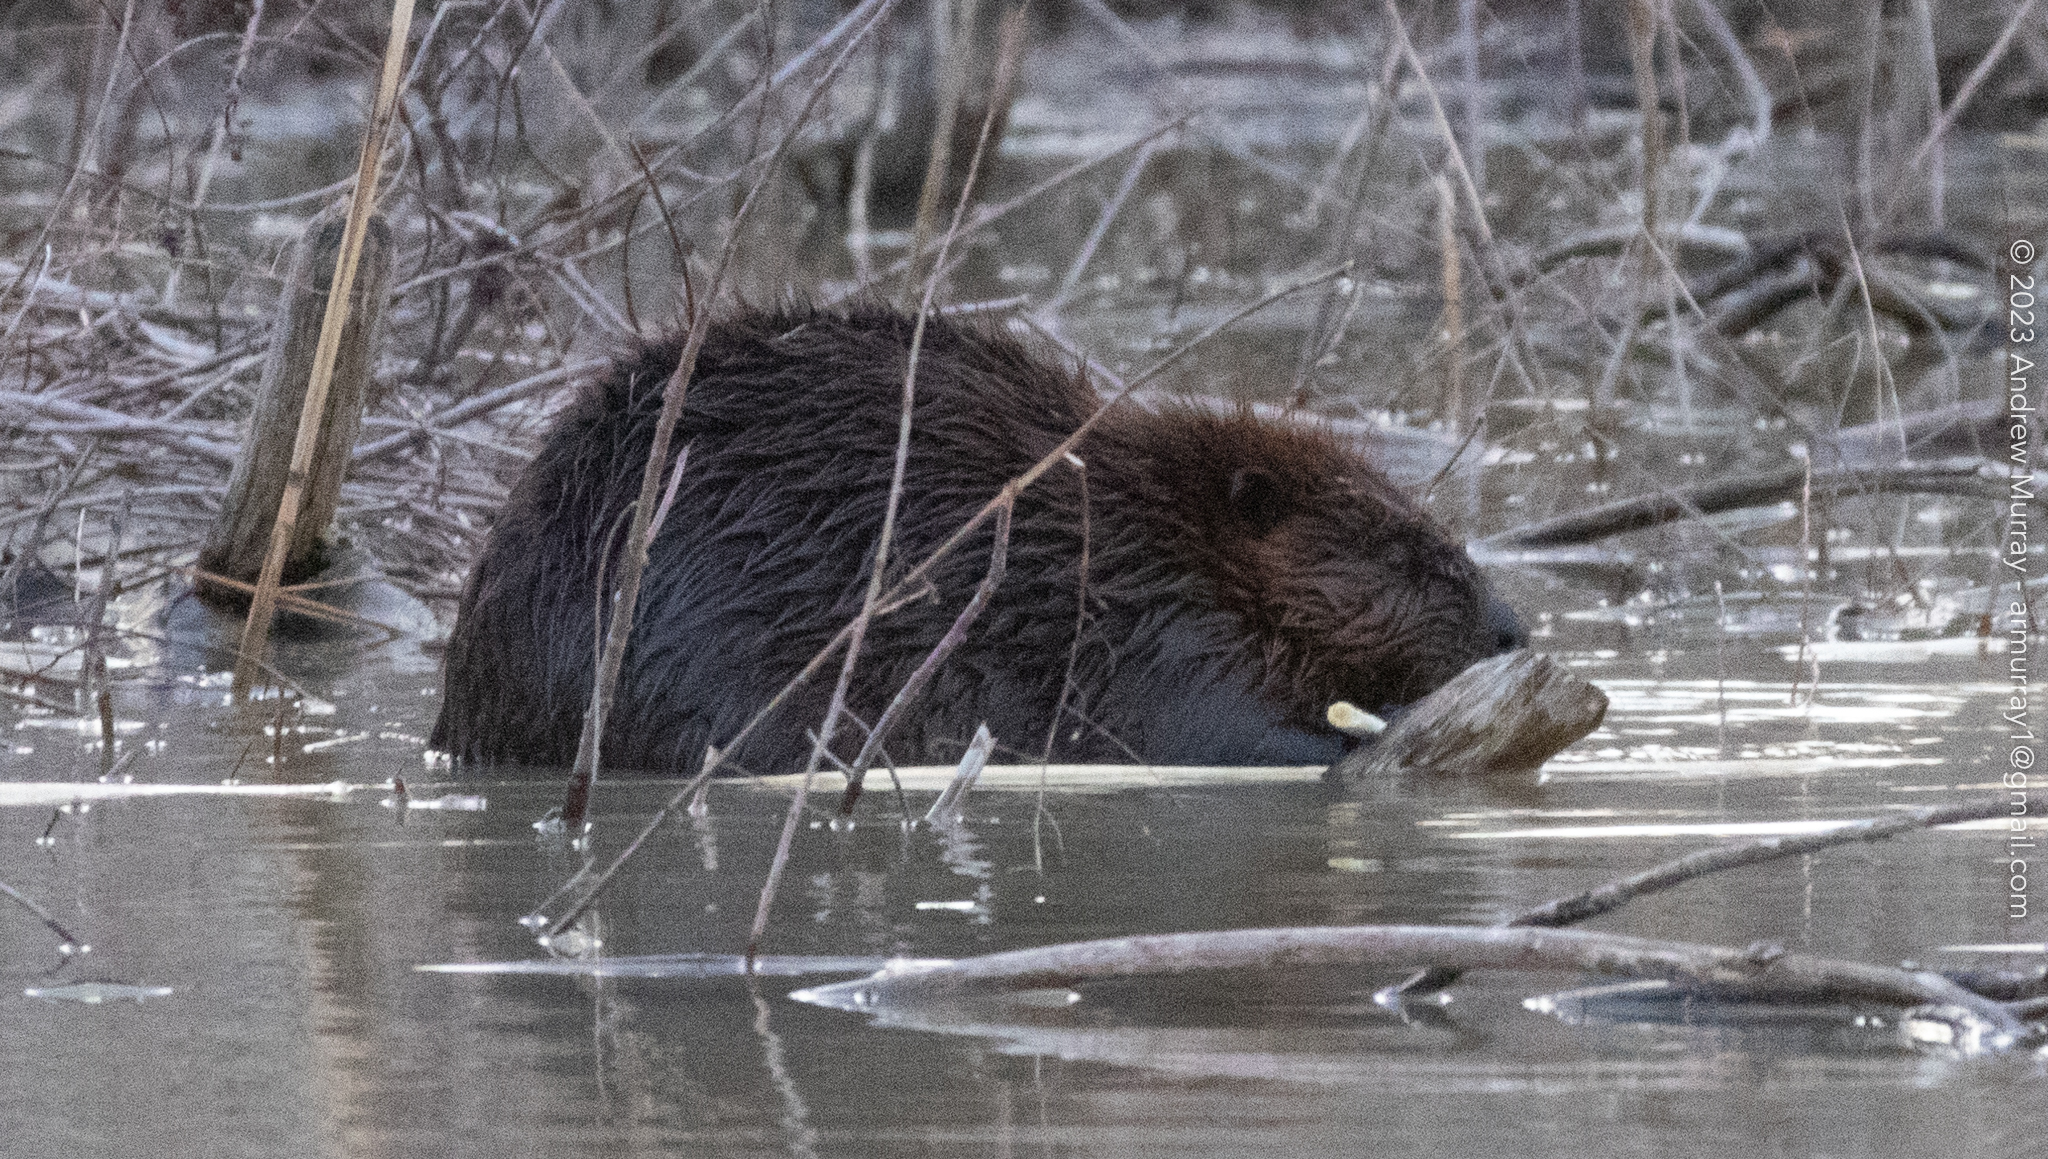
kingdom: Animalia
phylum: Chordata
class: Mammalia
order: Rodentia
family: Castoridae
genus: Castor
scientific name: Castor canadensis
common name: American beaver
